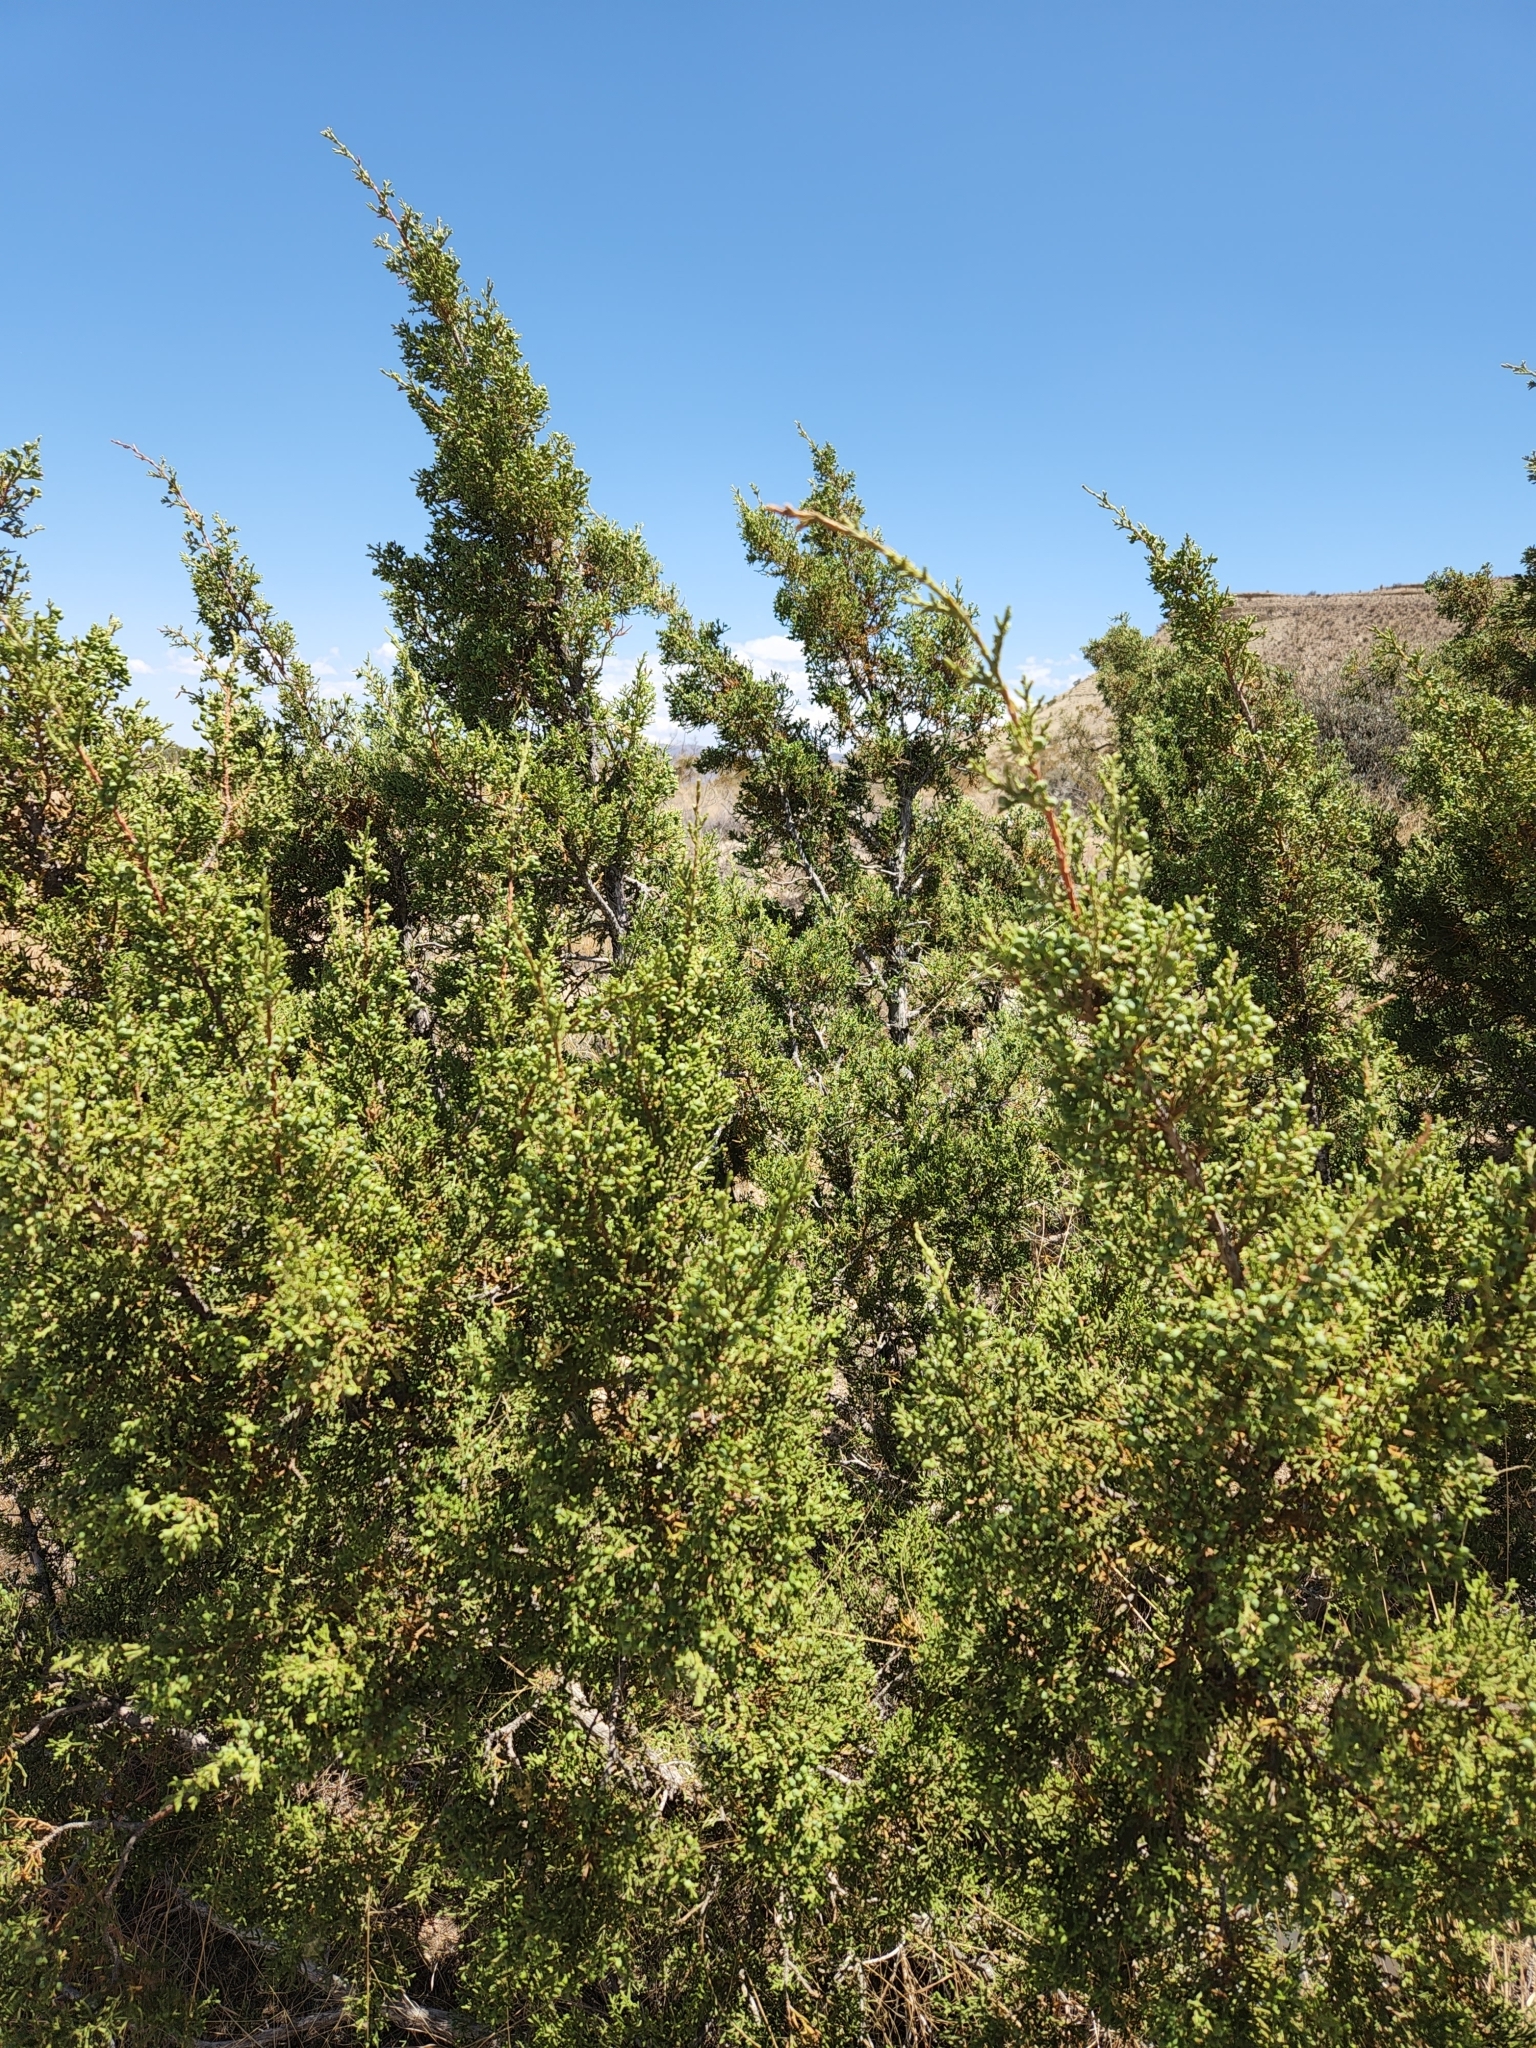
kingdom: Plantae
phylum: Tracheophyta
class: Pinopsida
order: Pinales
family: Cupressaceae
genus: Juniperus
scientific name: Juniperus pinchotii
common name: Pinchot juniper
